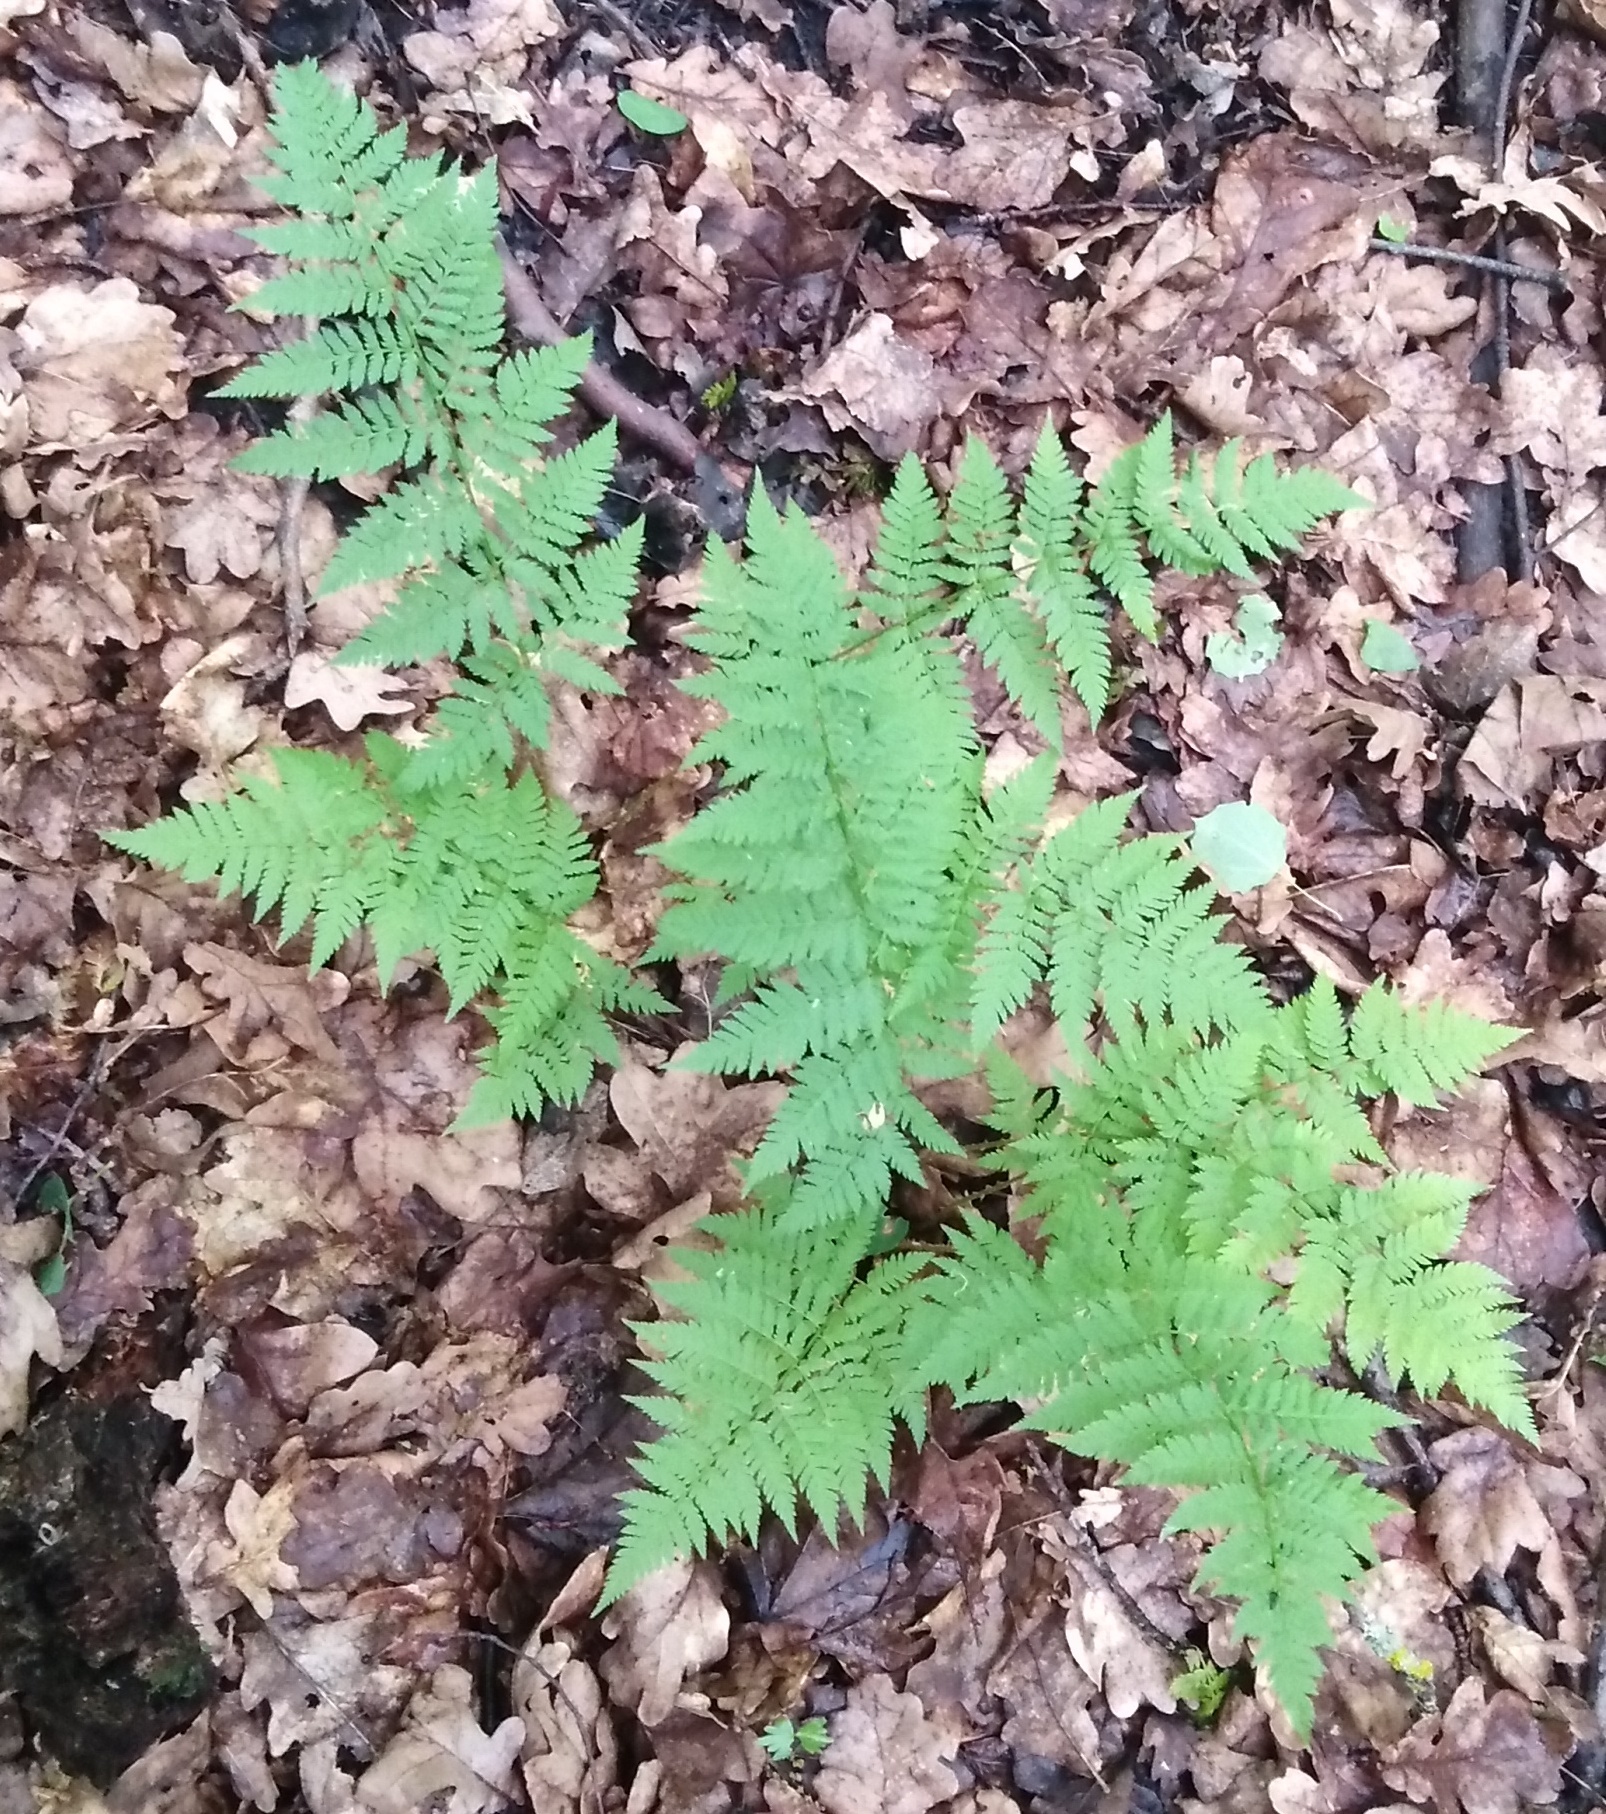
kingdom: Plantae
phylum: Tracheophyta
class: Polypodiopsida
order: Polypodiales
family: Dryopteridaceae
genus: Dryopteris
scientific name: Dryopteris carthusiana
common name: Narrow buckler-fern
